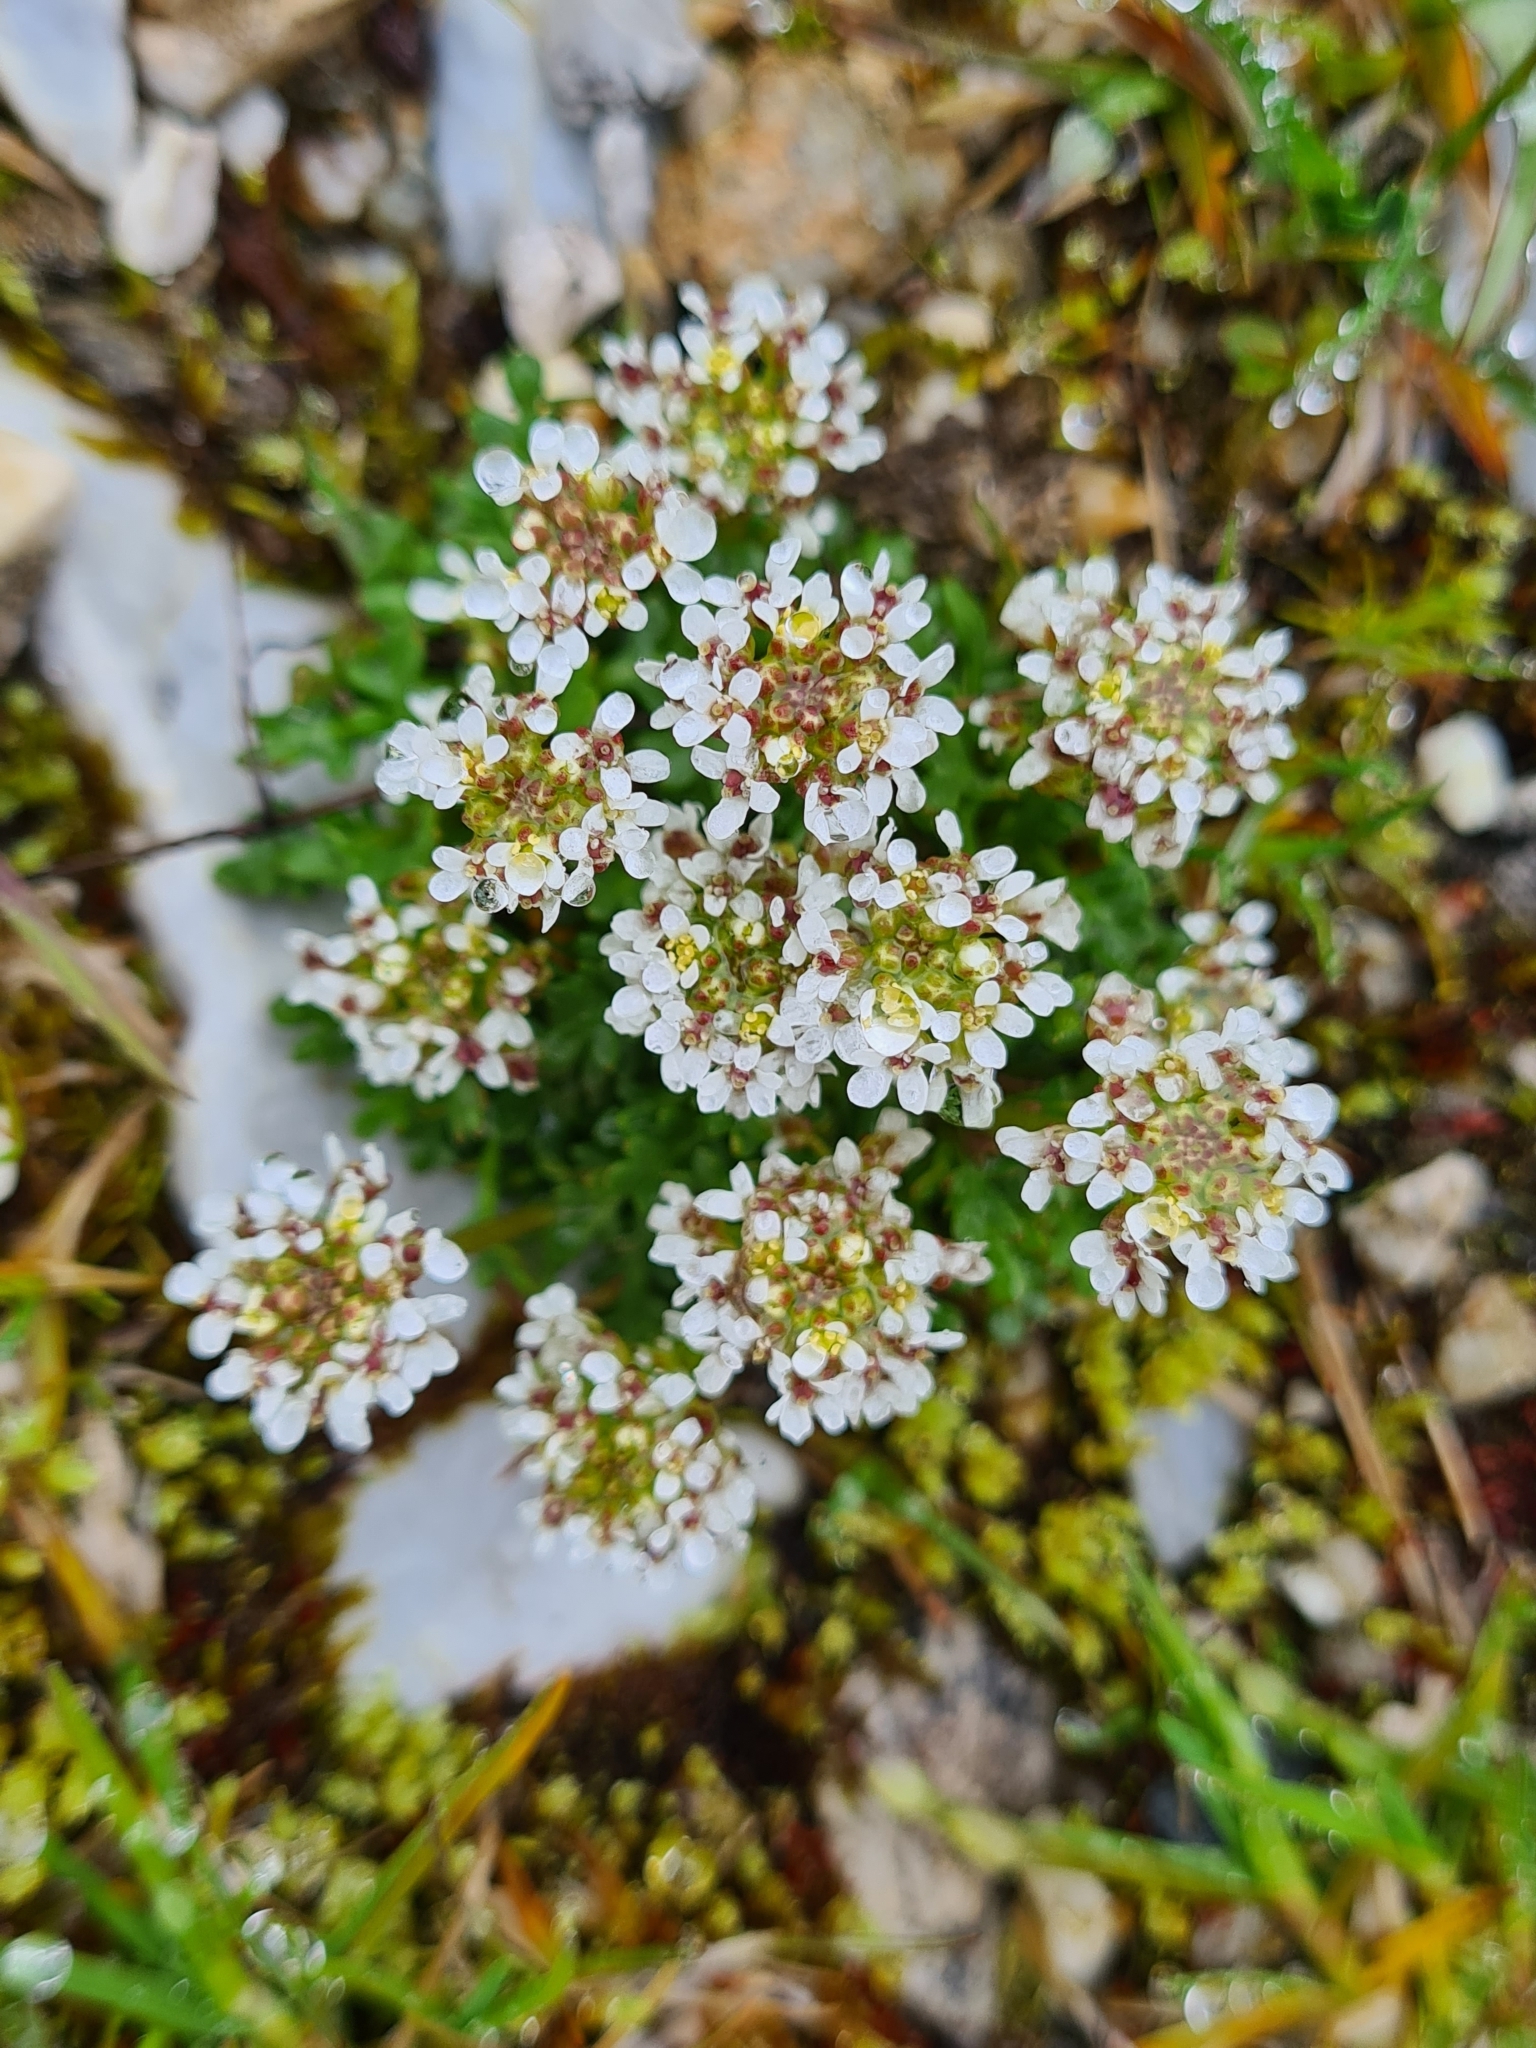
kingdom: Plantae
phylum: Tracheophyta
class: Magnoliopsida
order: Brassicales
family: Brassicaceae
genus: Hornungia
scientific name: Hornungia alpina
